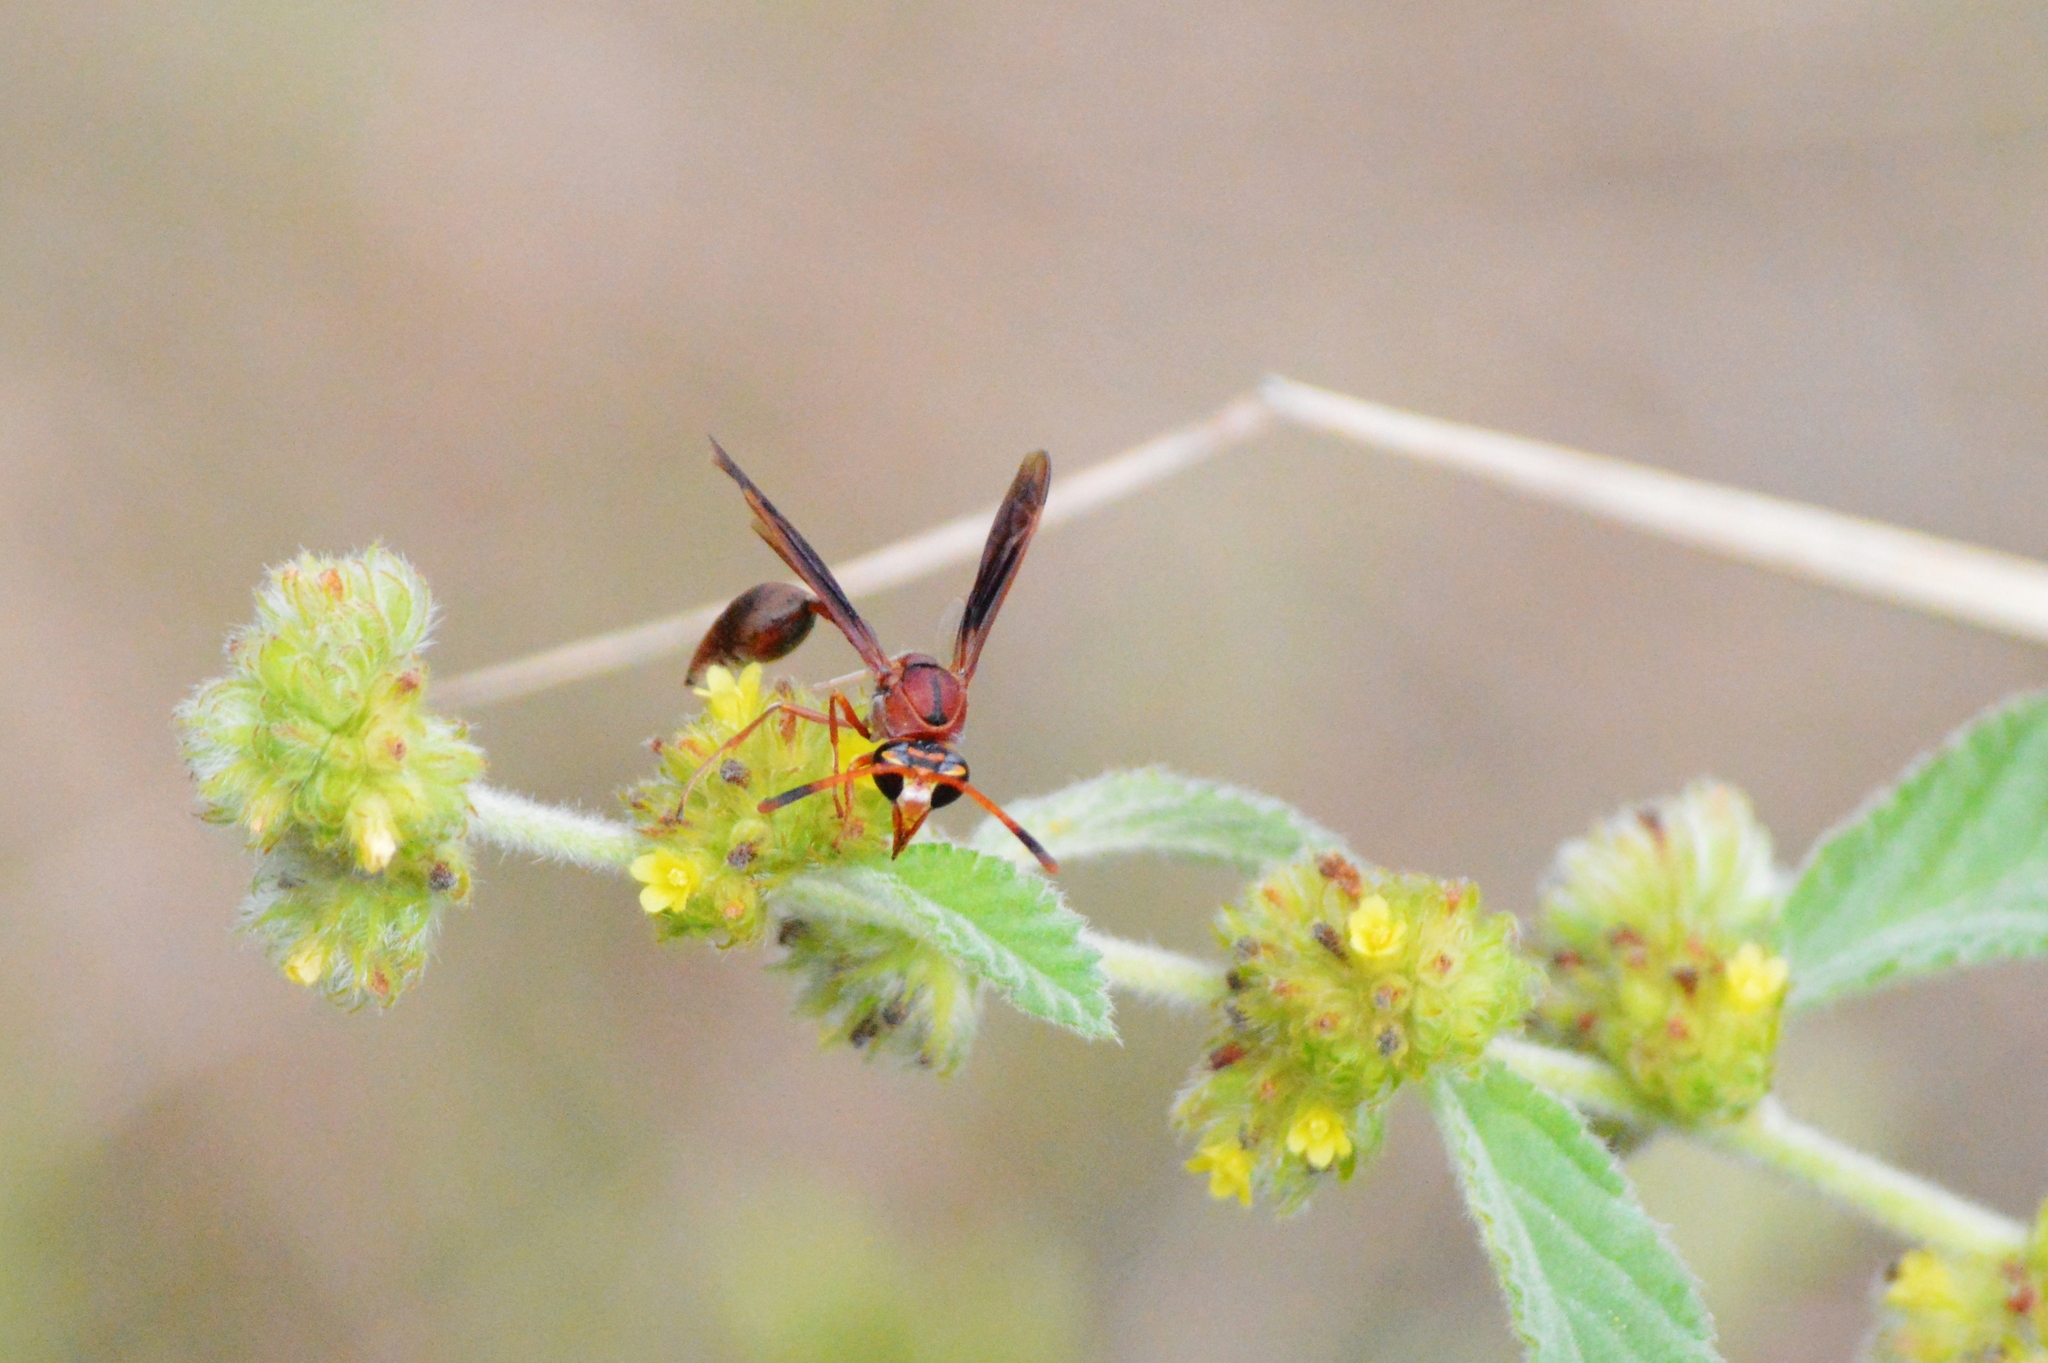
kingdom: Animalia
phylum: Arthropoda
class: Insecta
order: Hymenoptera
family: Eumenidae
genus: Zeta
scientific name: Zeta argillaceum
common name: Potter wasp
